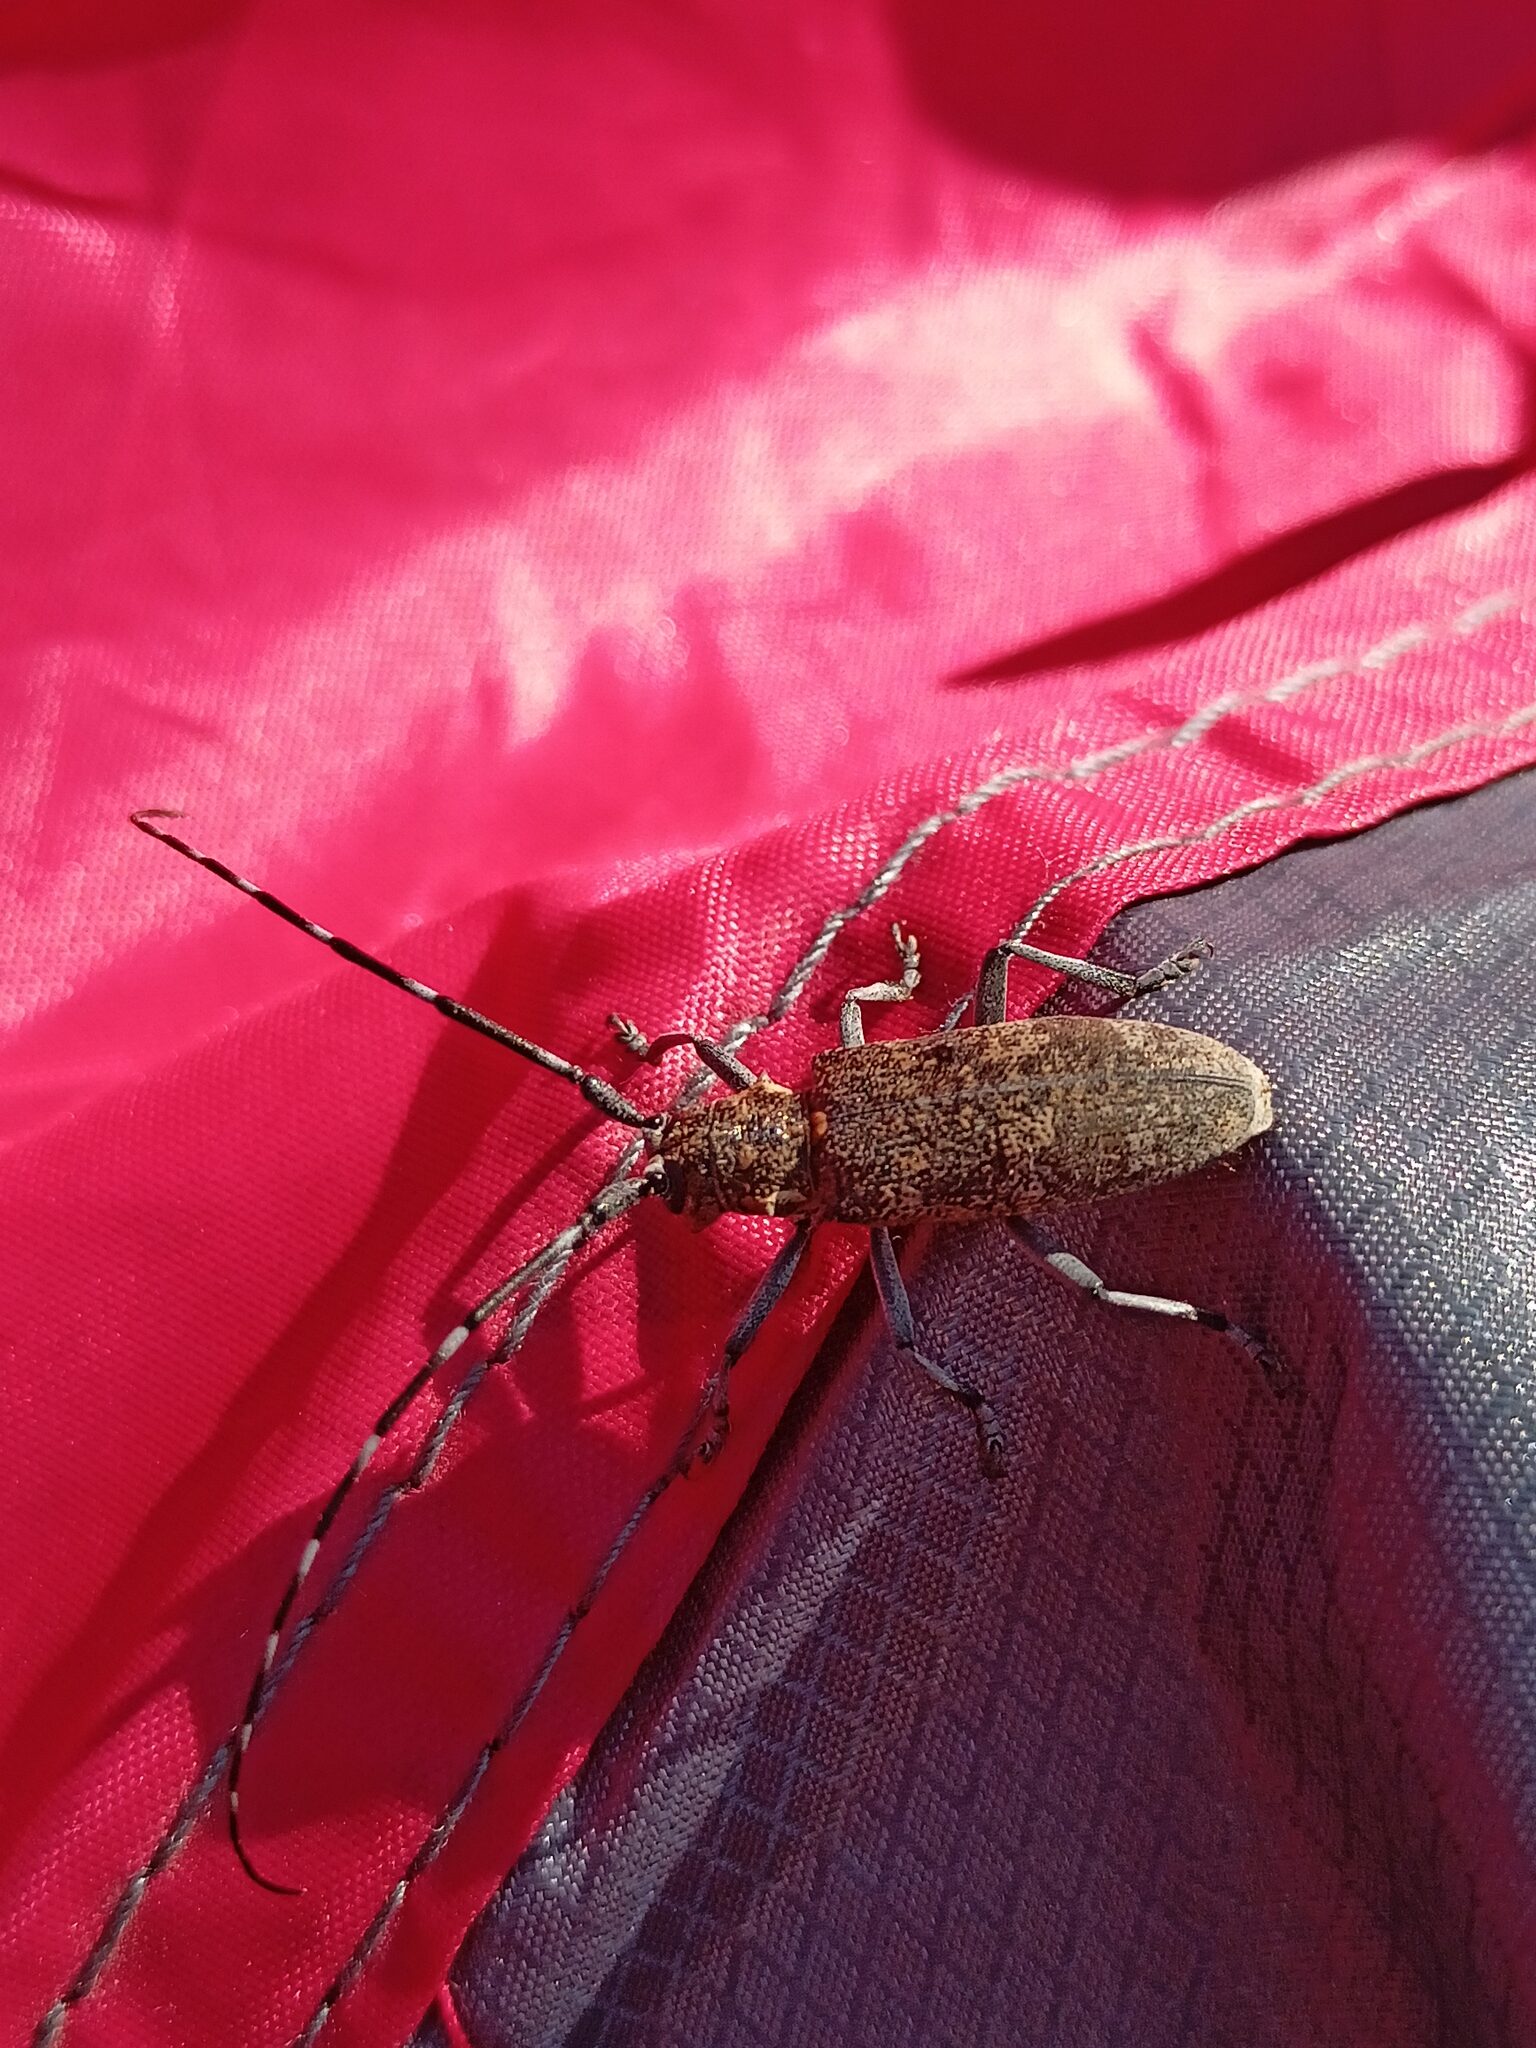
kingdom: Animalia
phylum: Arthropoda
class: Insecta
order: Coleoptera
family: Cerambycidae
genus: Monochamus
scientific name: Monochamus galloprovincialis
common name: Pine sawyer
